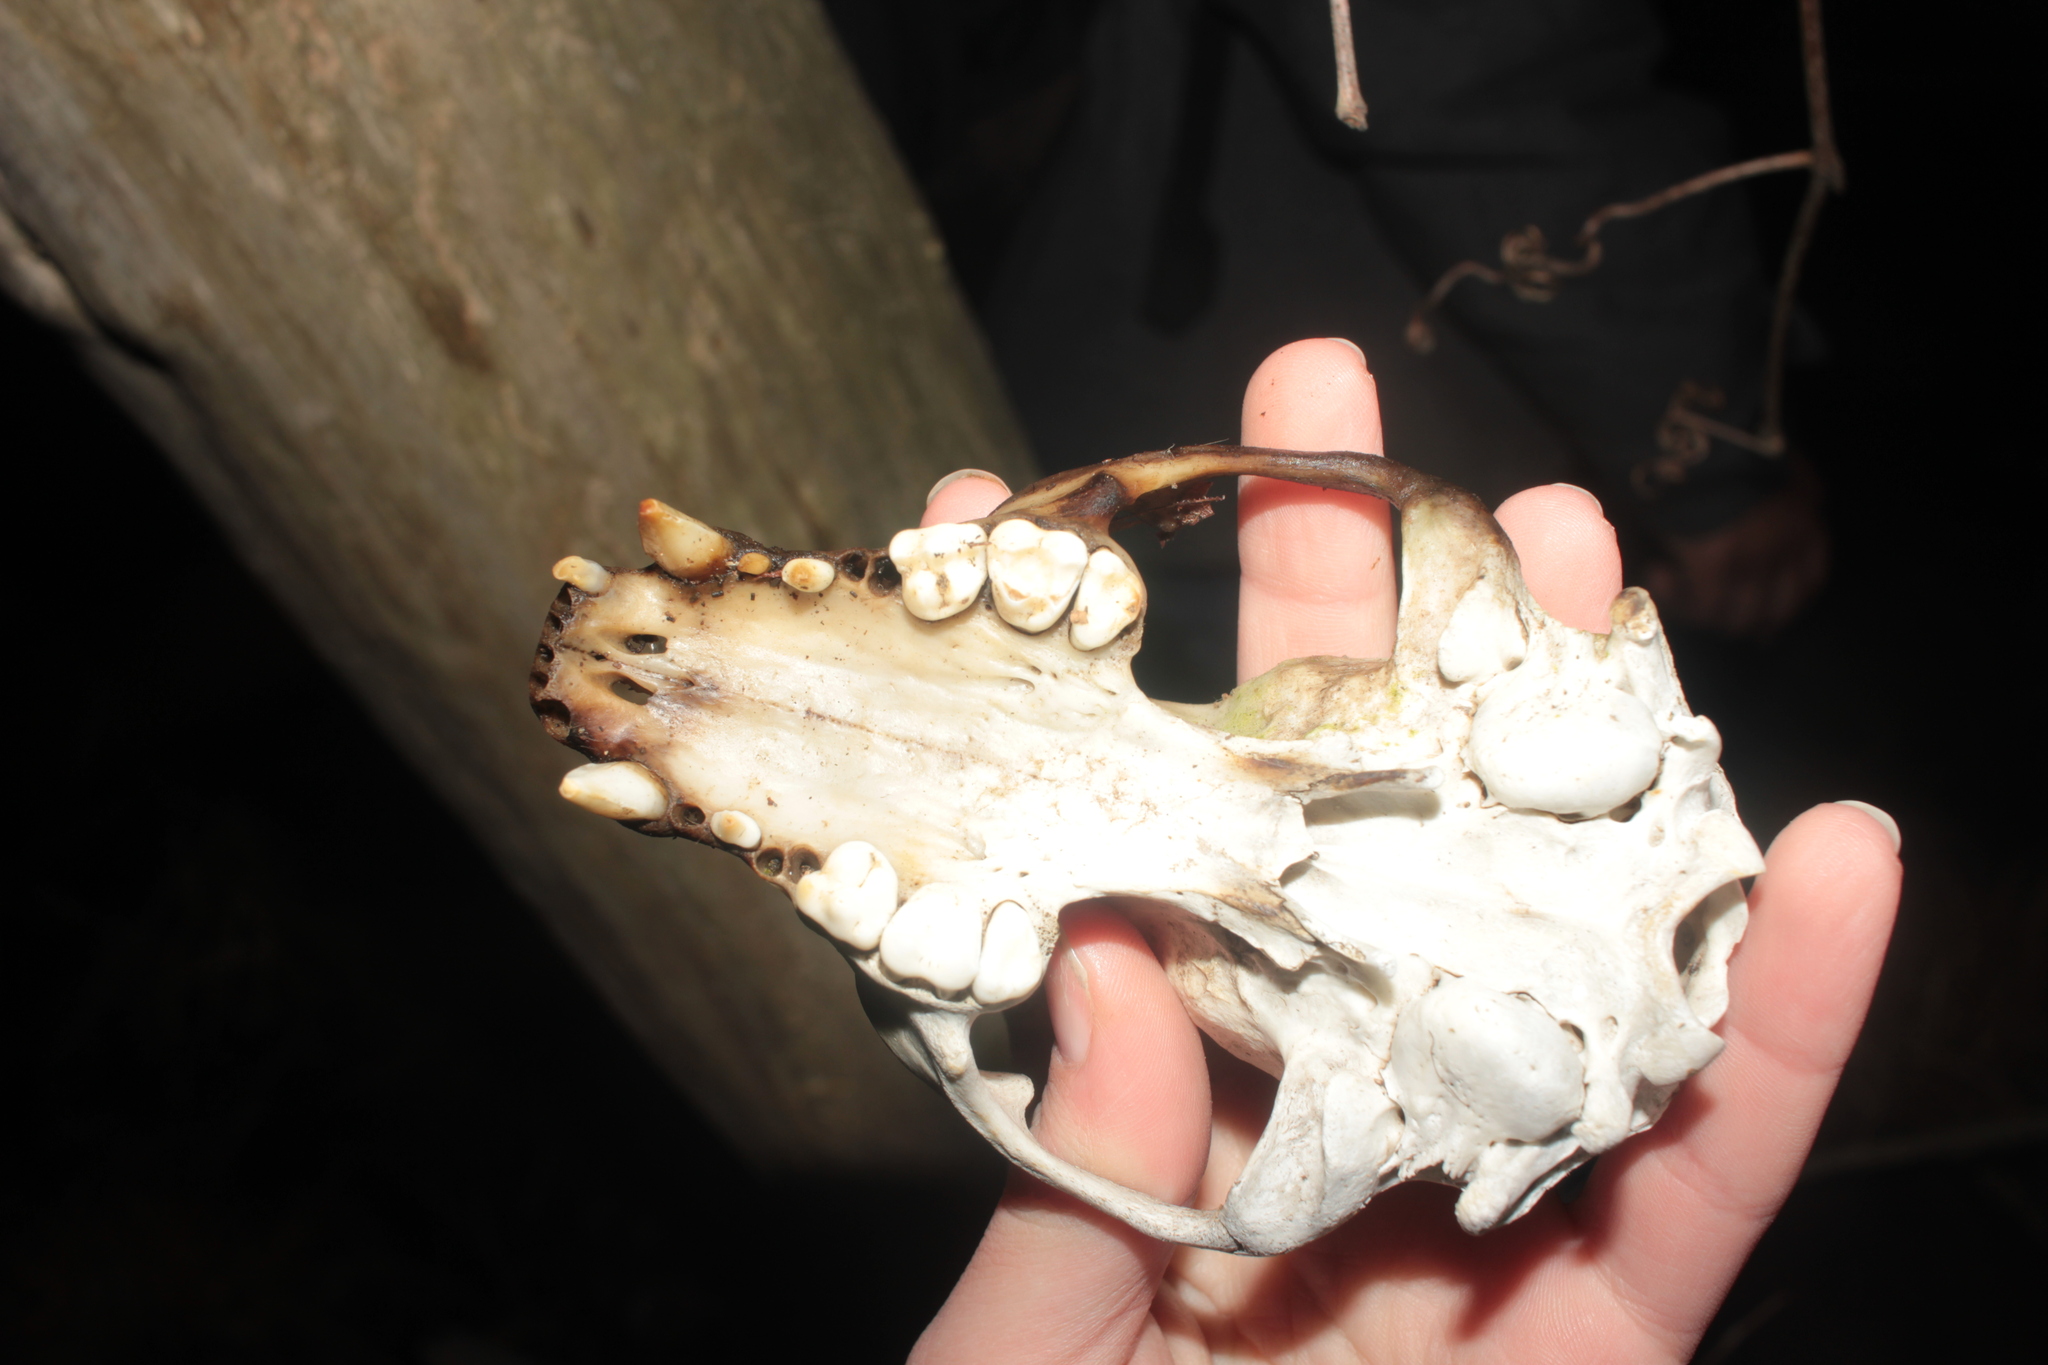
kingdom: Animalia
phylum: Chordata
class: Mammalia
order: Carnivora
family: Procyonidae
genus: Procyon
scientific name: Procyon lotor
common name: Raccoon
